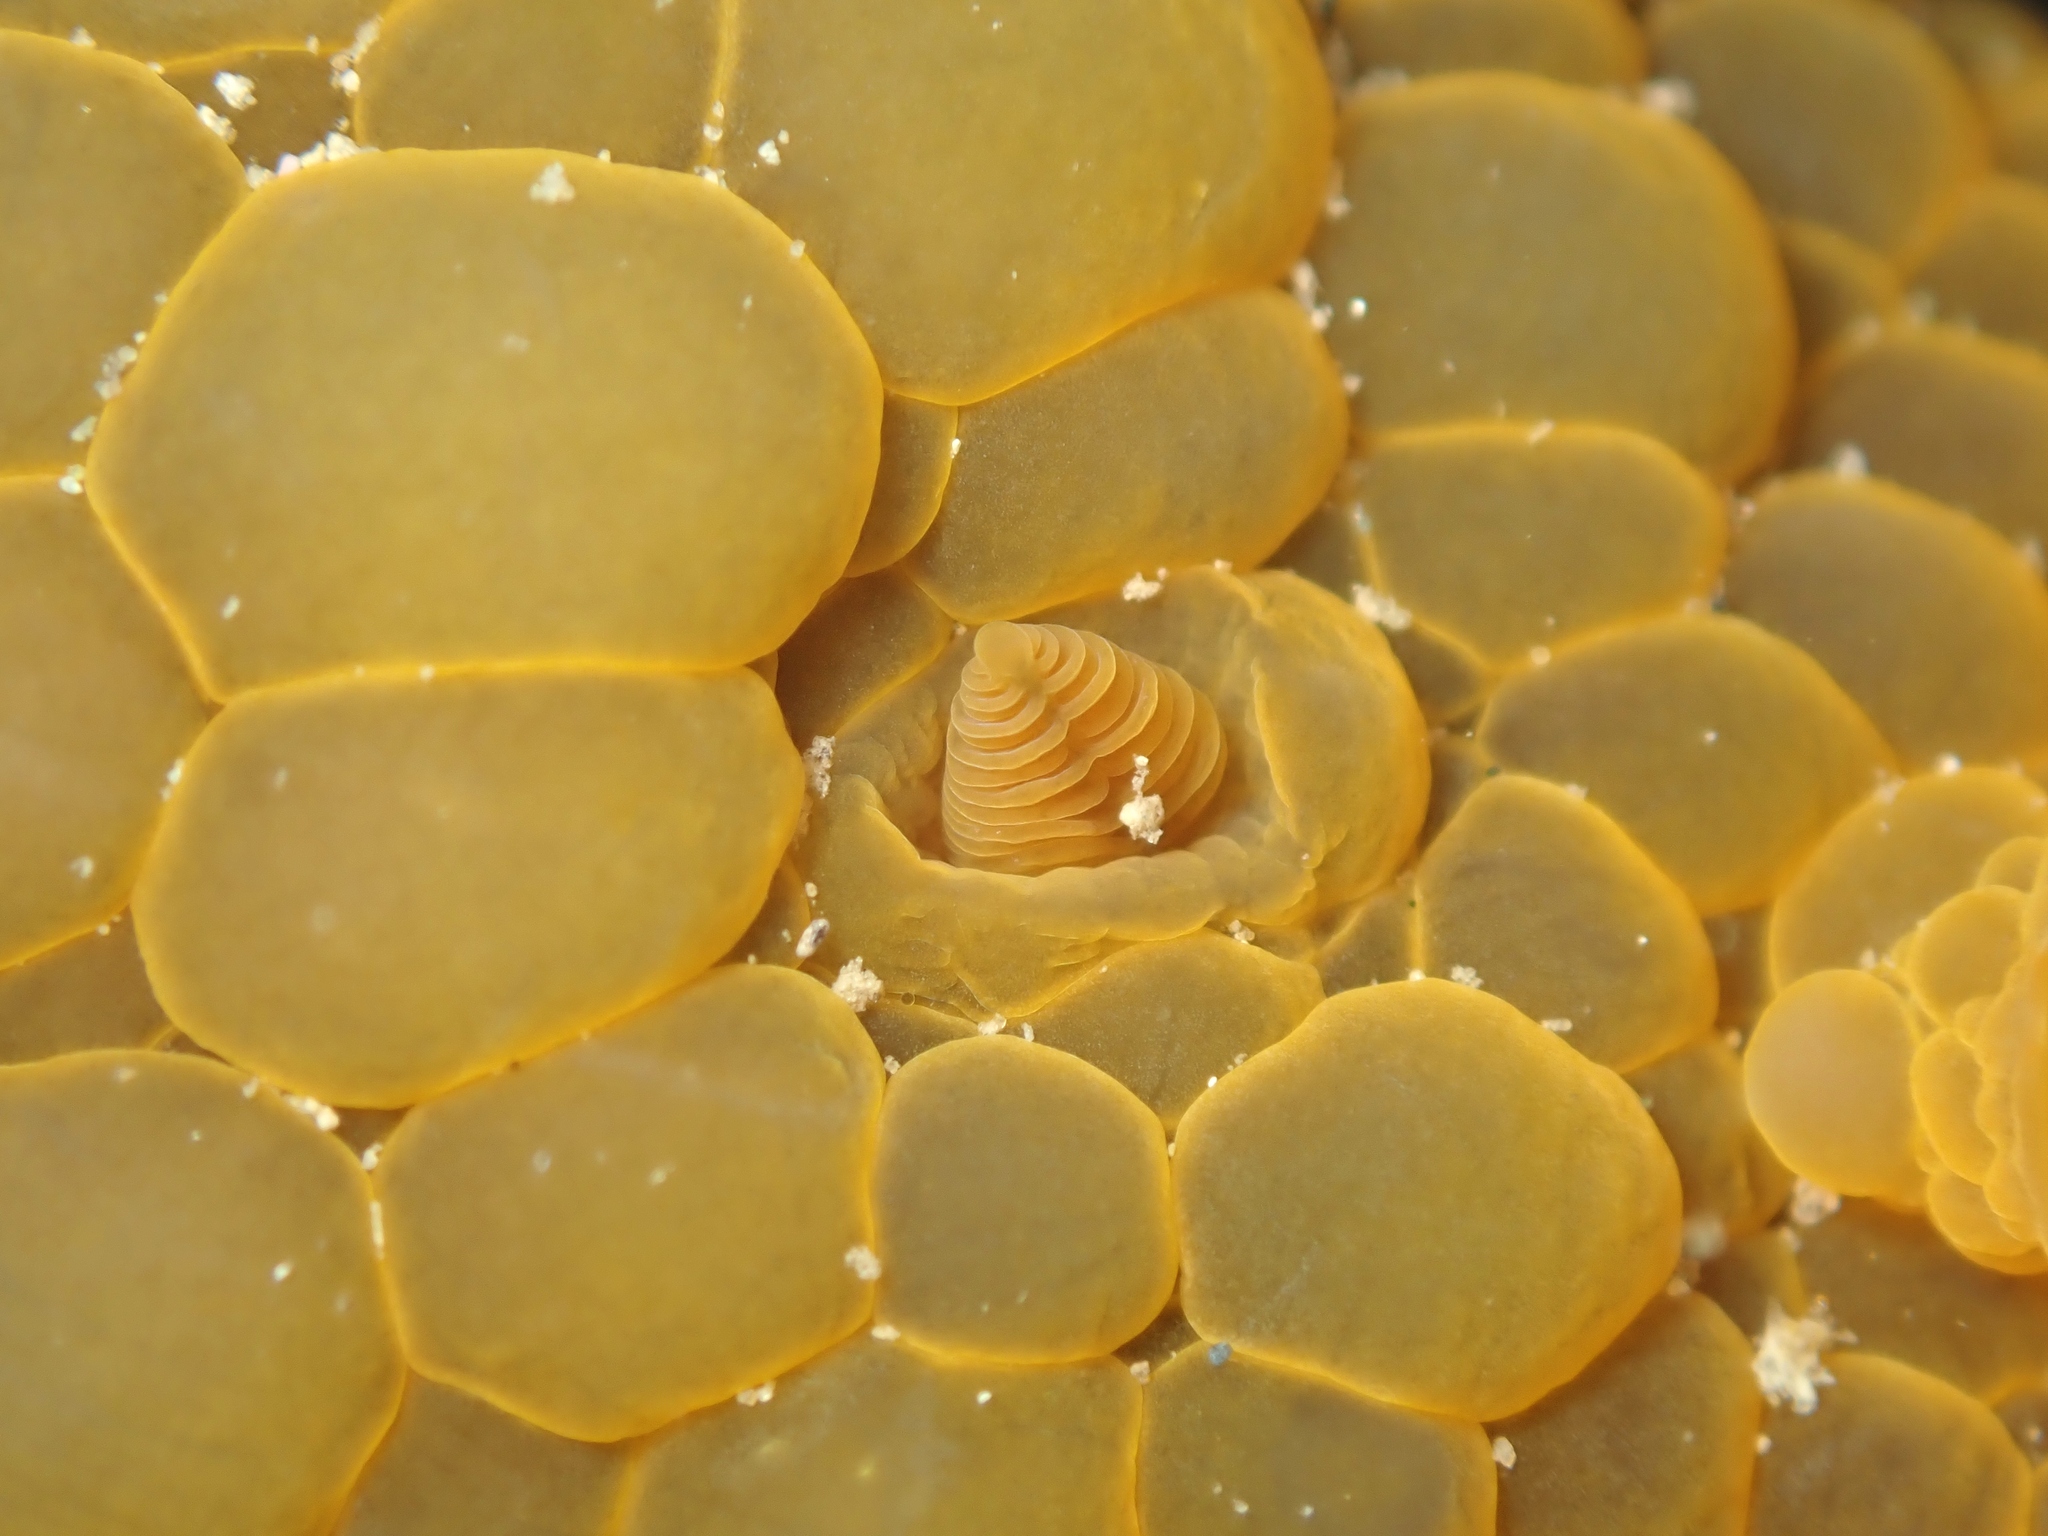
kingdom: Animalia
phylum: Mollusca
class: Gastropoda
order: Nudibranchia
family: Dorididae
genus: Doris
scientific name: Doris wellingtonensis
